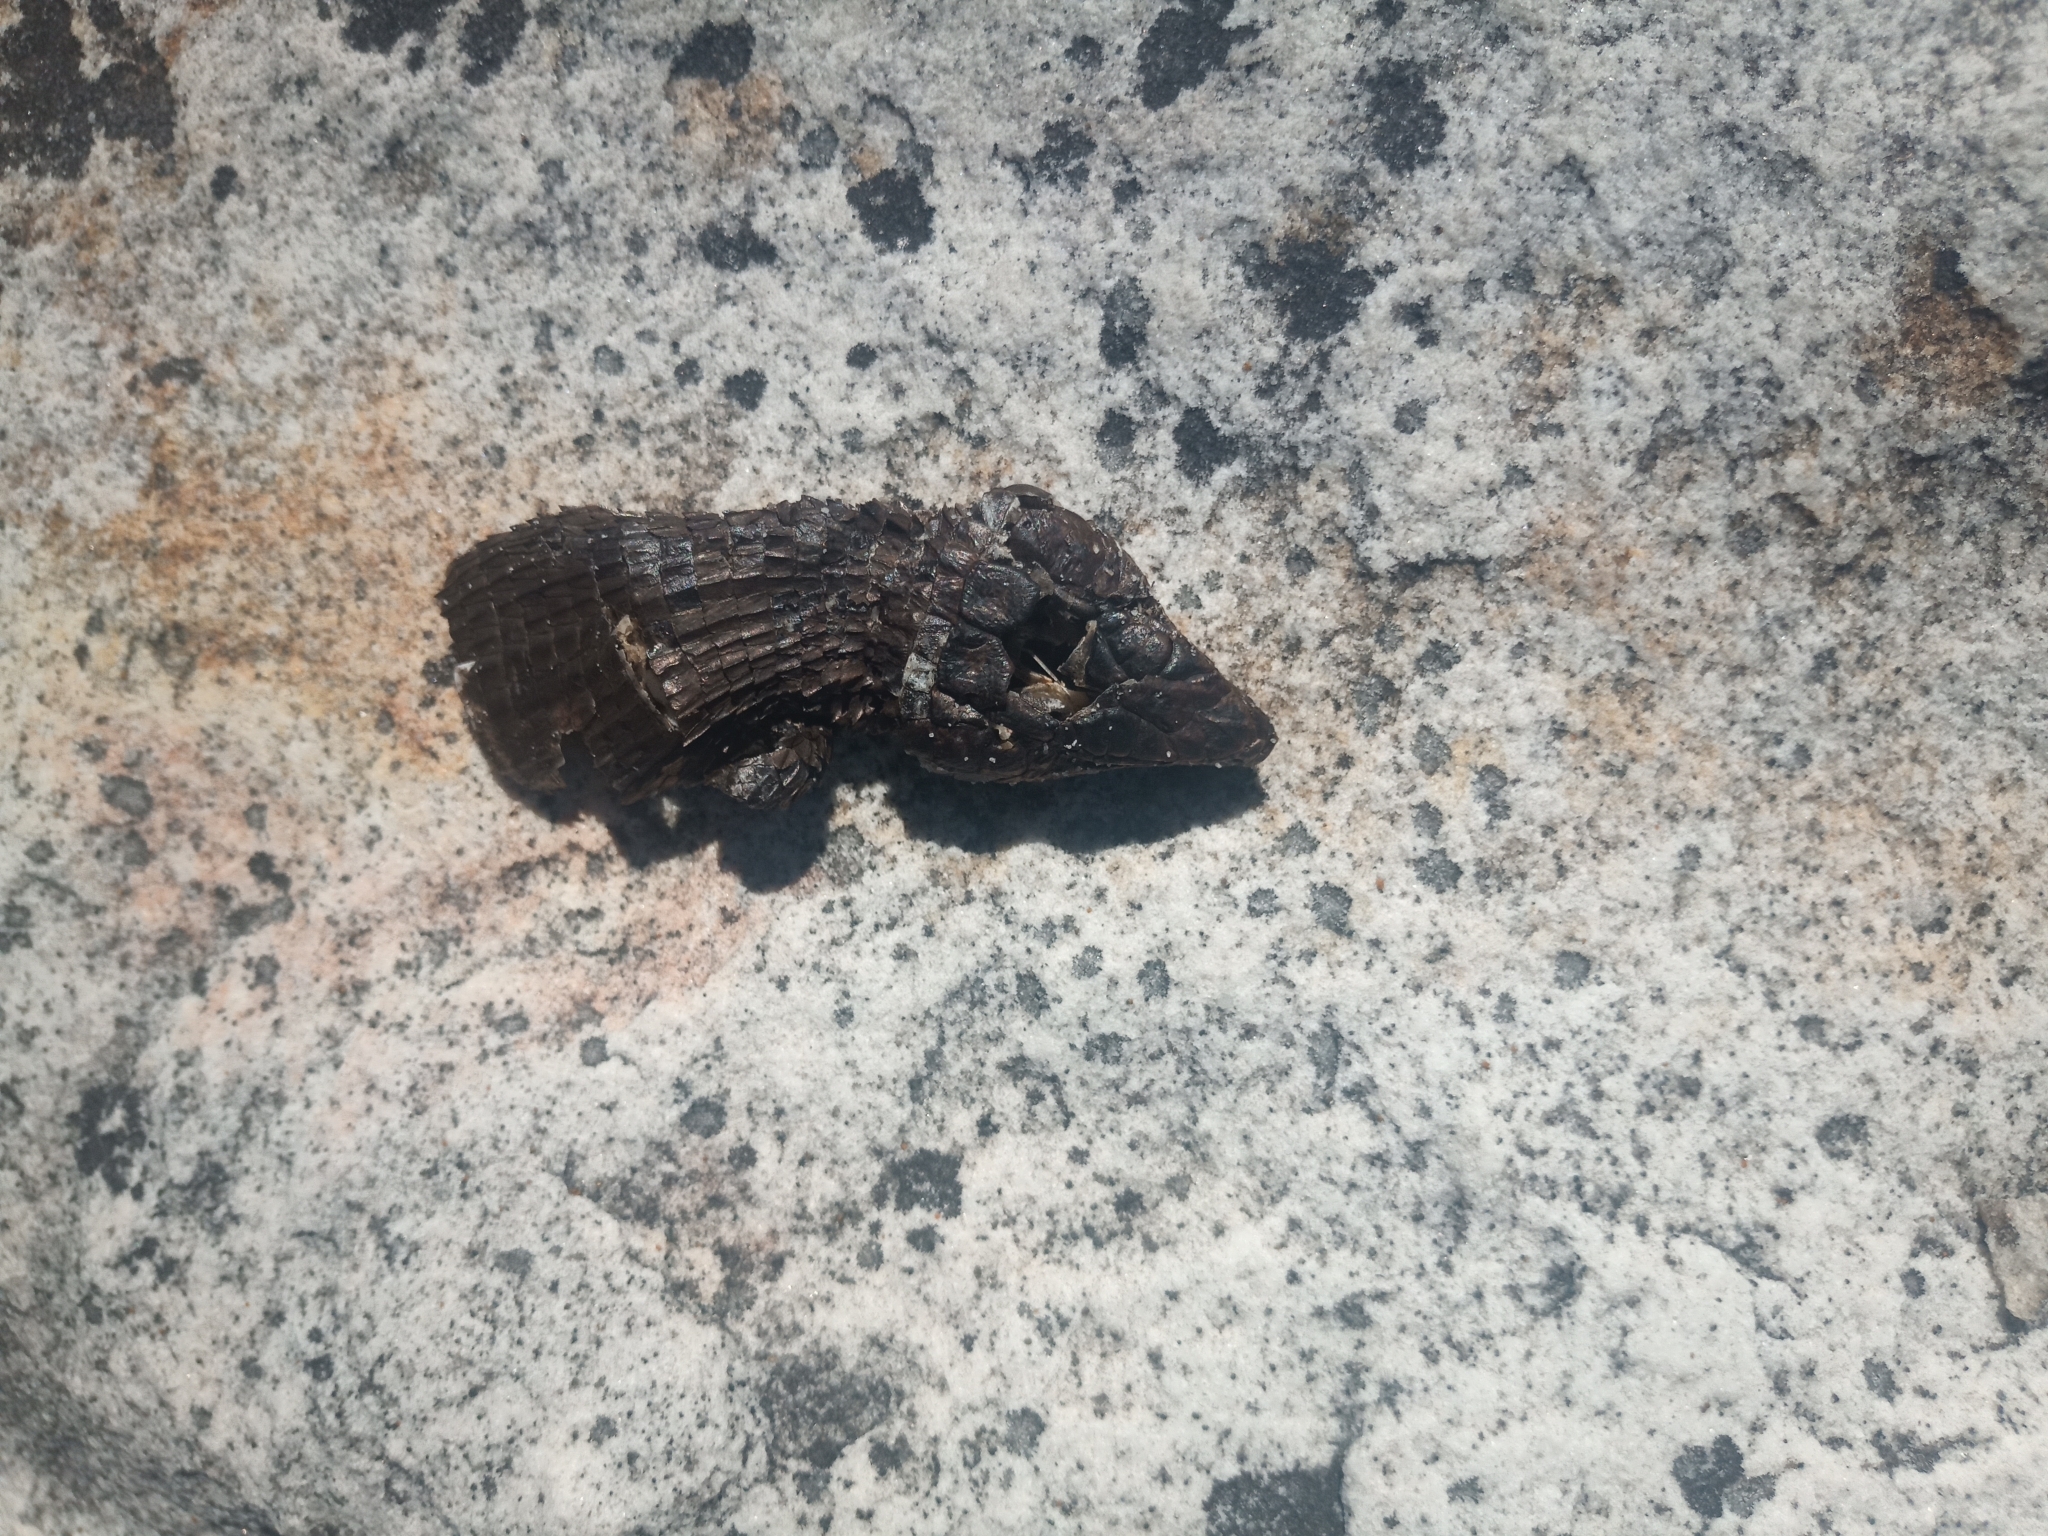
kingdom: Animalia
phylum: Chordata
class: Squamata
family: Cordylidae
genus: Cordylus
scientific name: Cordylus niger
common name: Black girdled lizard
